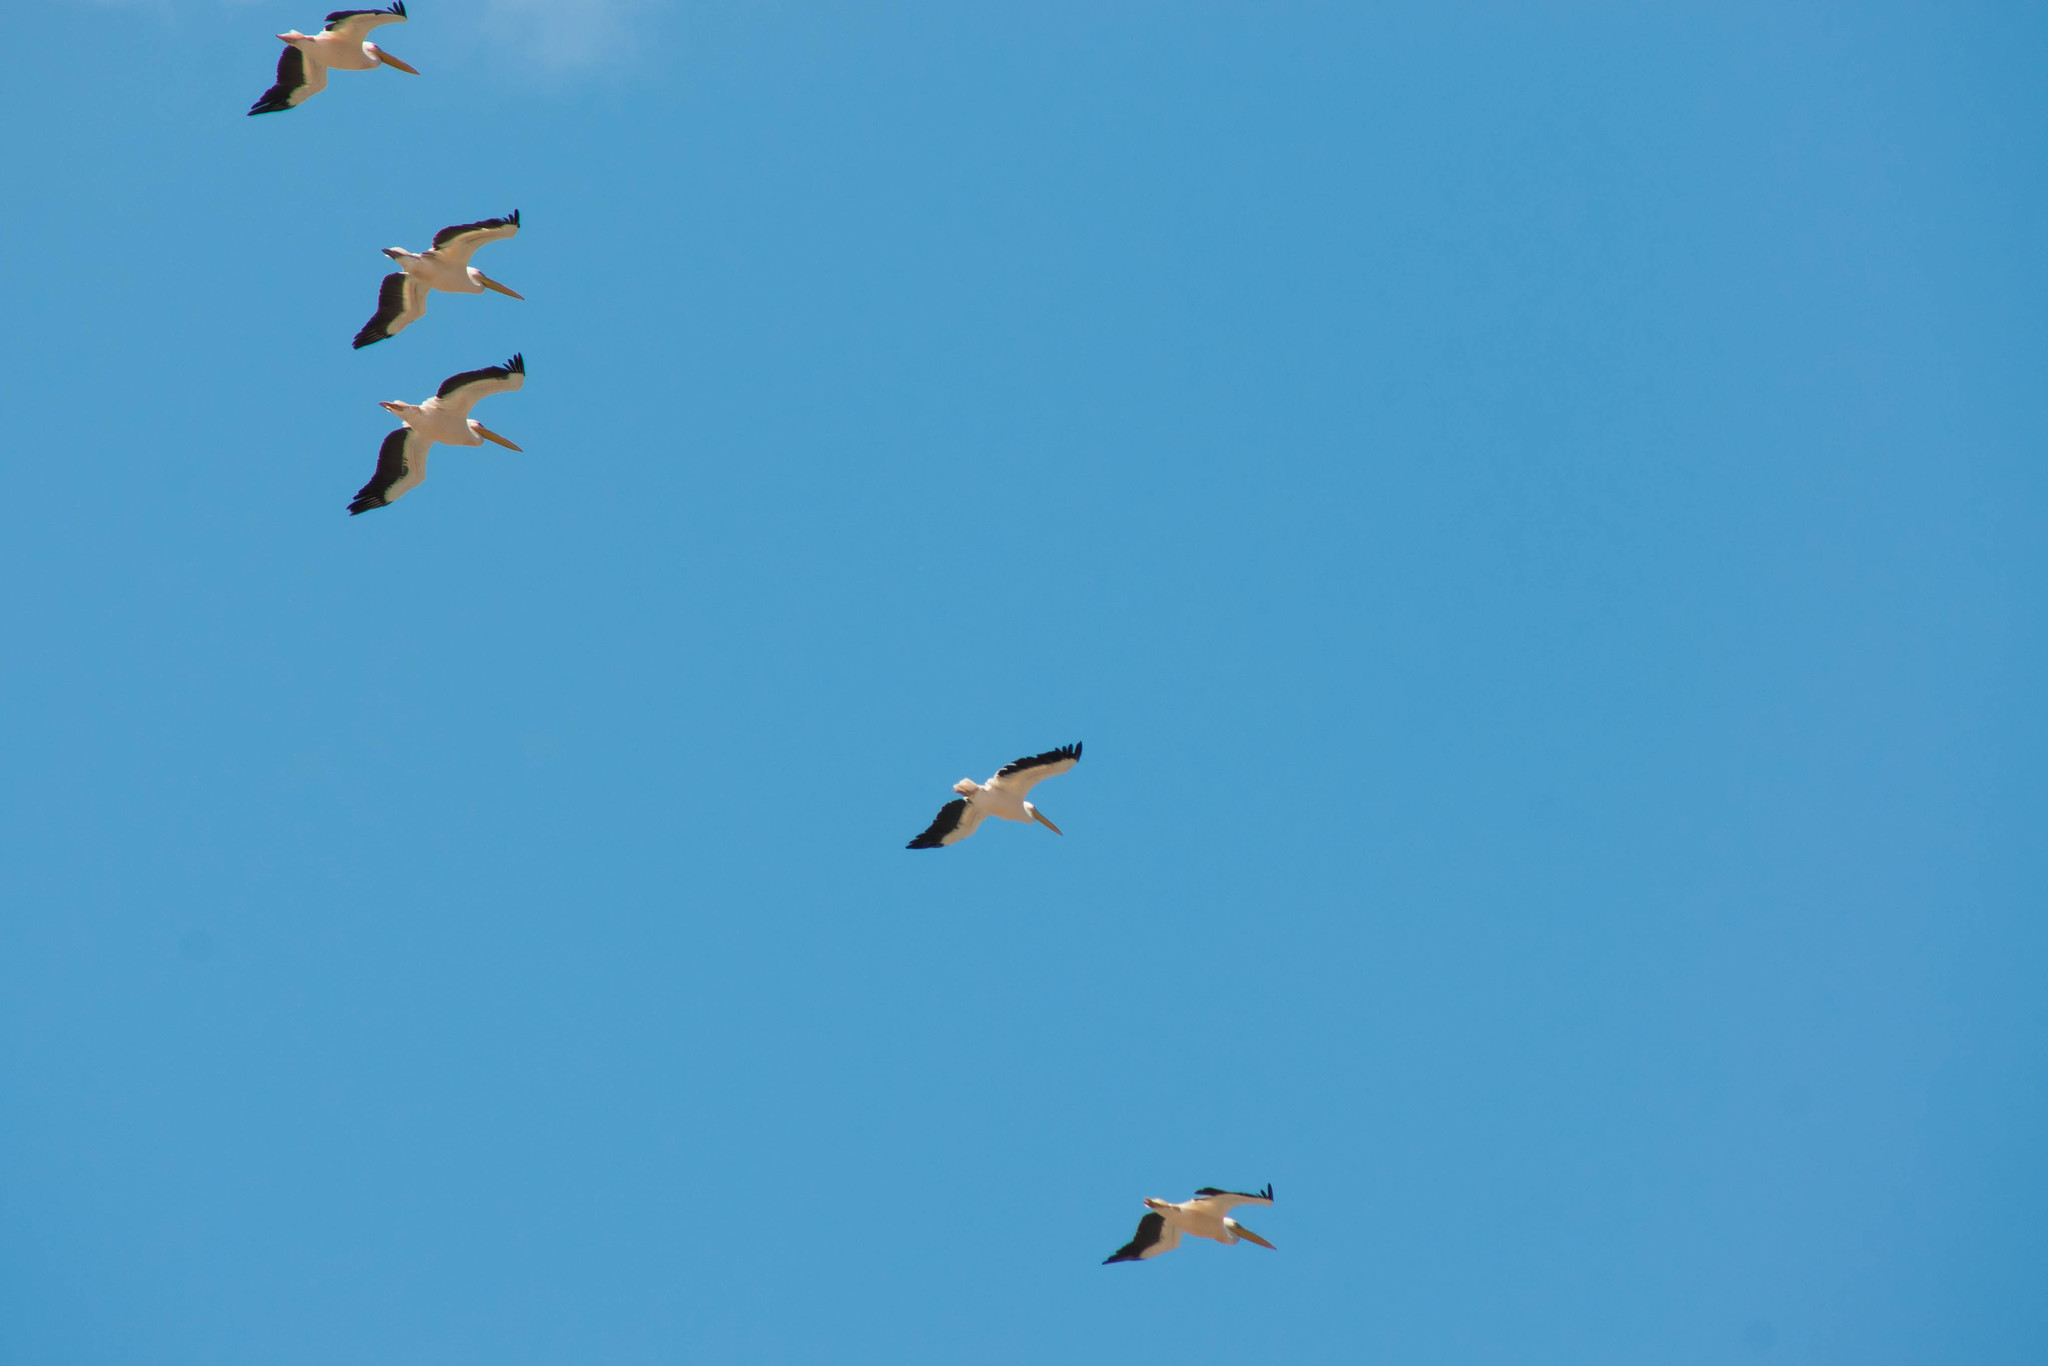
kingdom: Animalia
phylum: Chordata
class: Aves
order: Pelecaniformes
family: Pelecanidae
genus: Pelecanus
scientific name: Pelecanus onocrotalus
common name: Great white pelican
